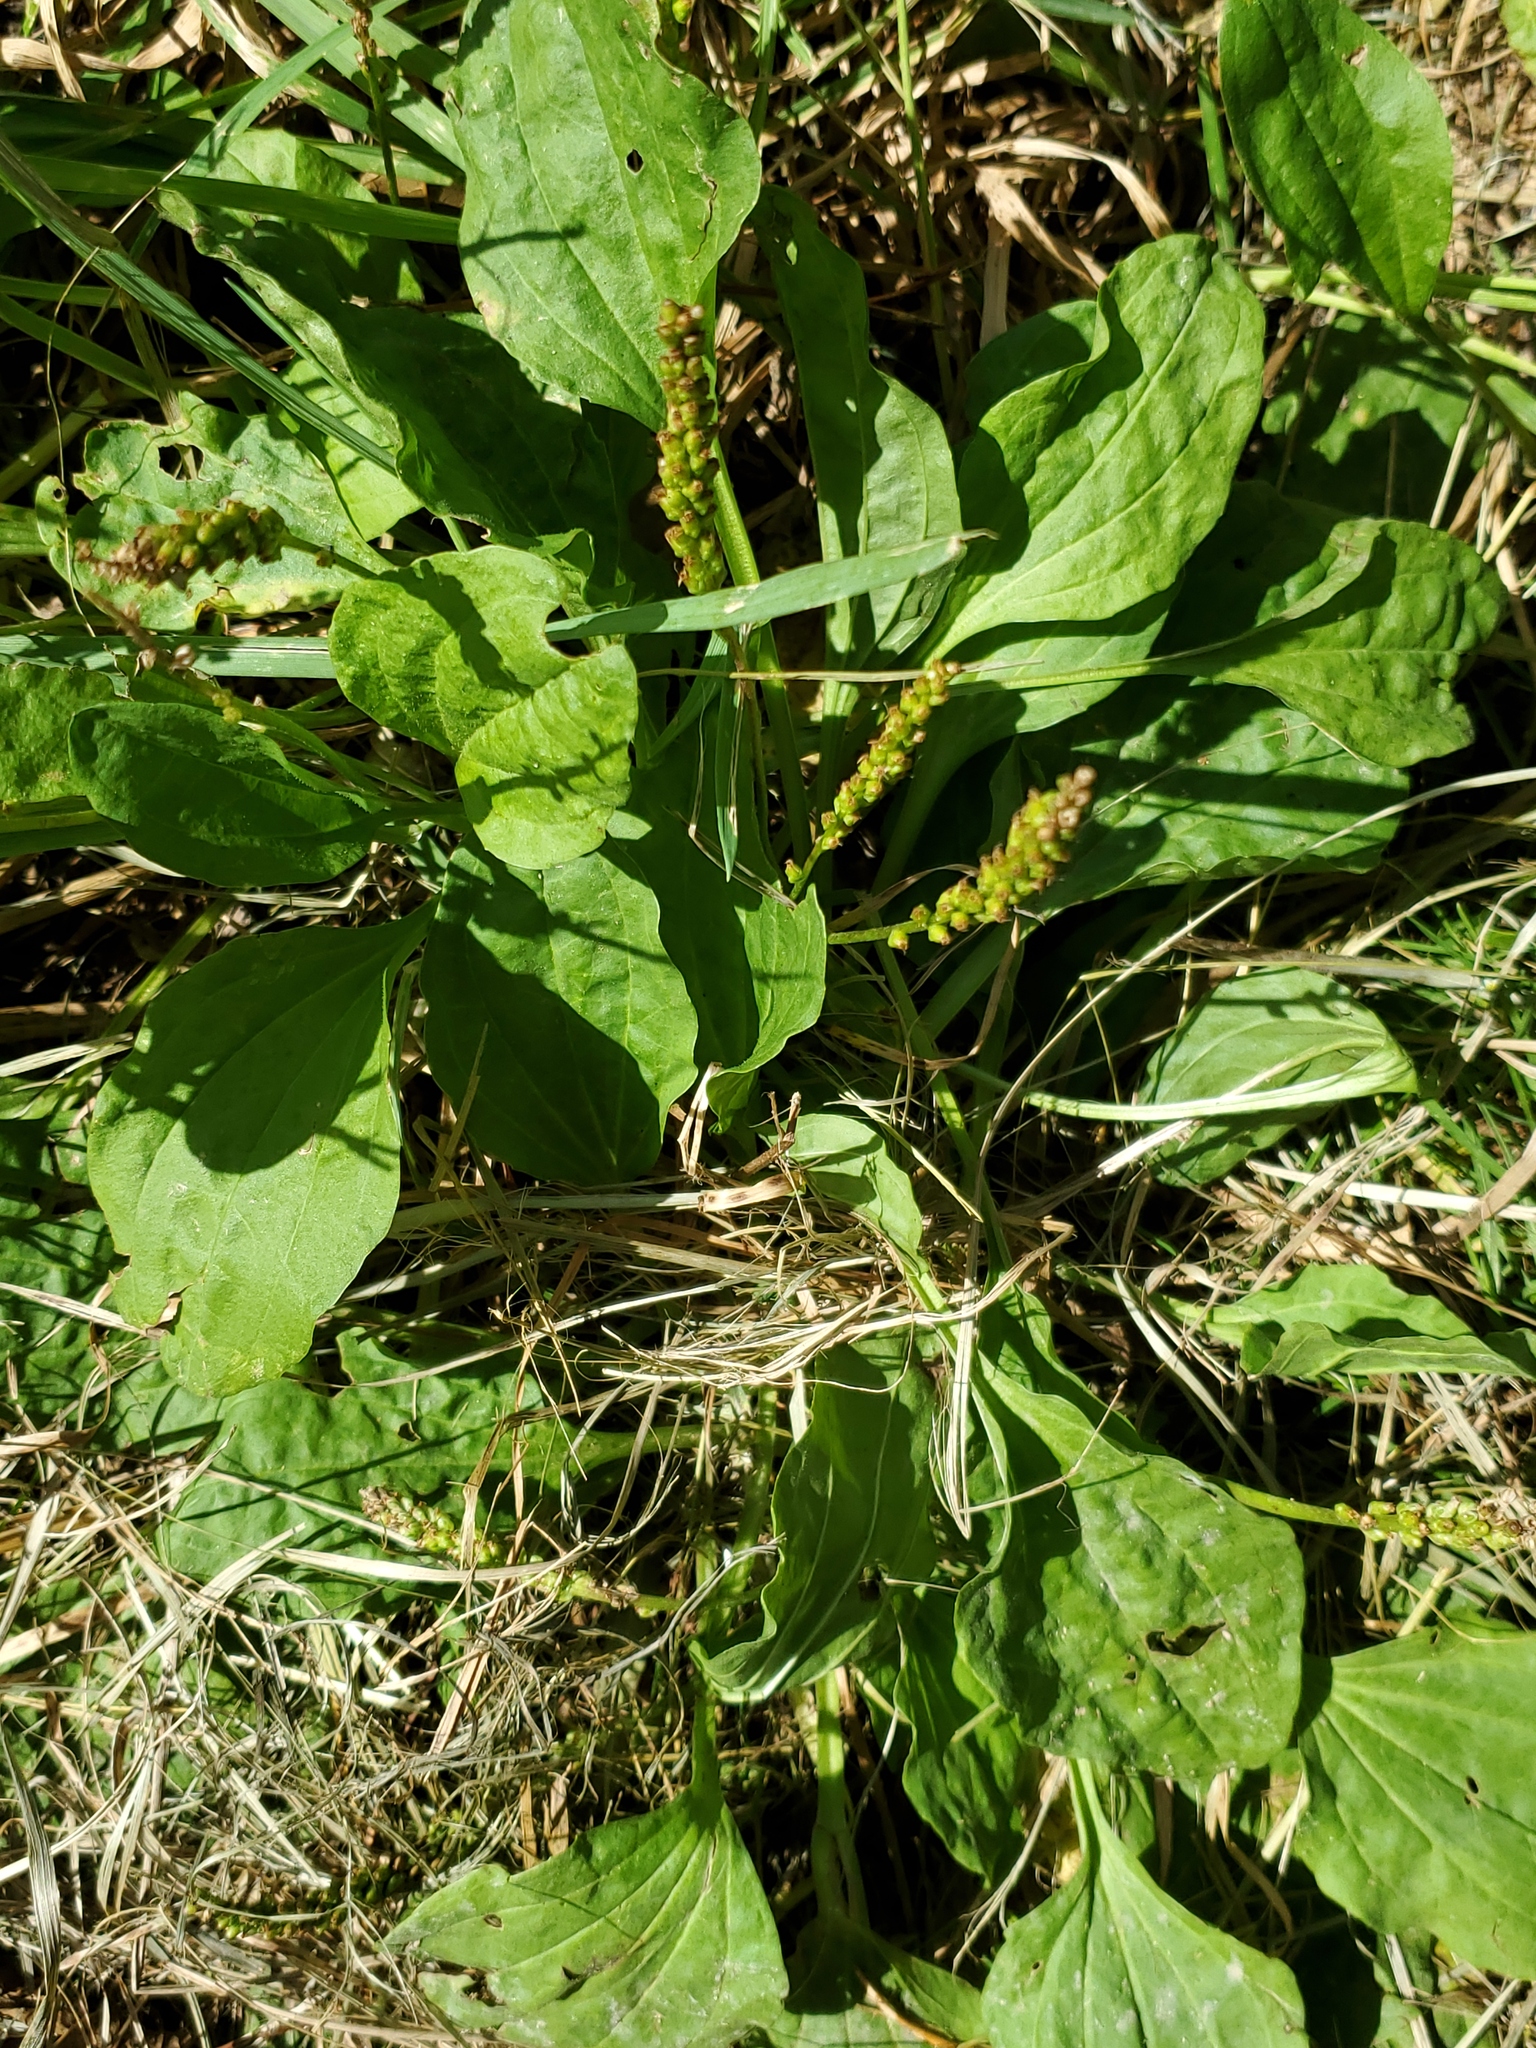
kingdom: Plantae
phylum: Tracheophyta
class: Magnoliopsida
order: Lamiales
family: Plantaginaceae
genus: Plantago
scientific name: Plantago major
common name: Common plantain
